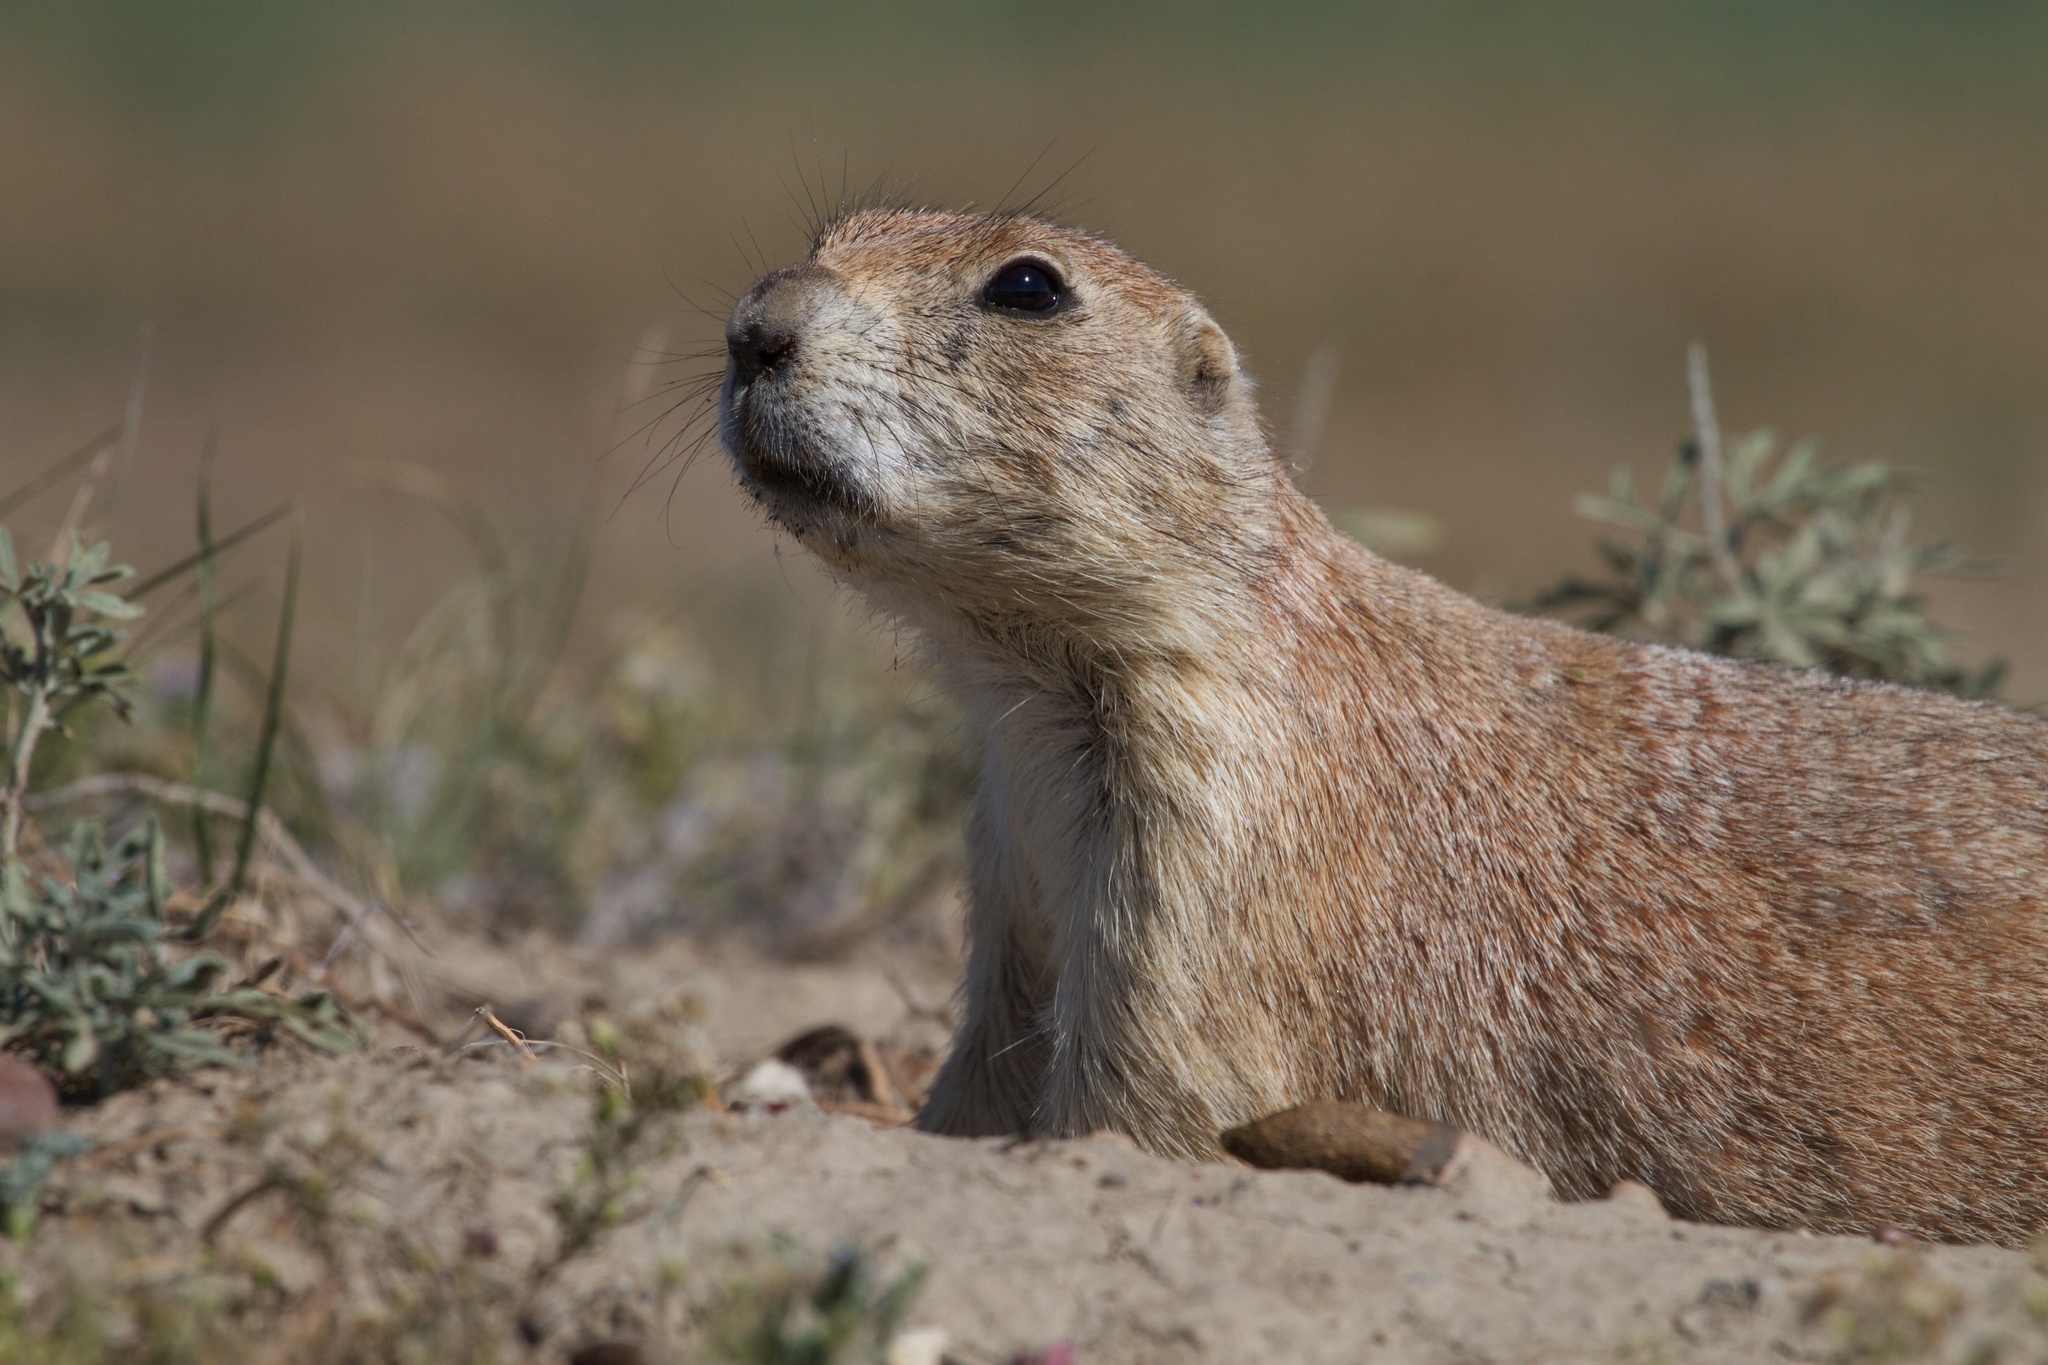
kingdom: Animalia
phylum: Chordata
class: Mammalia
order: Rodentia
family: Sciuridae
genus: Cynomys
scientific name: Cynomys ludovicianus
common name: Black-tailed prairie dog
